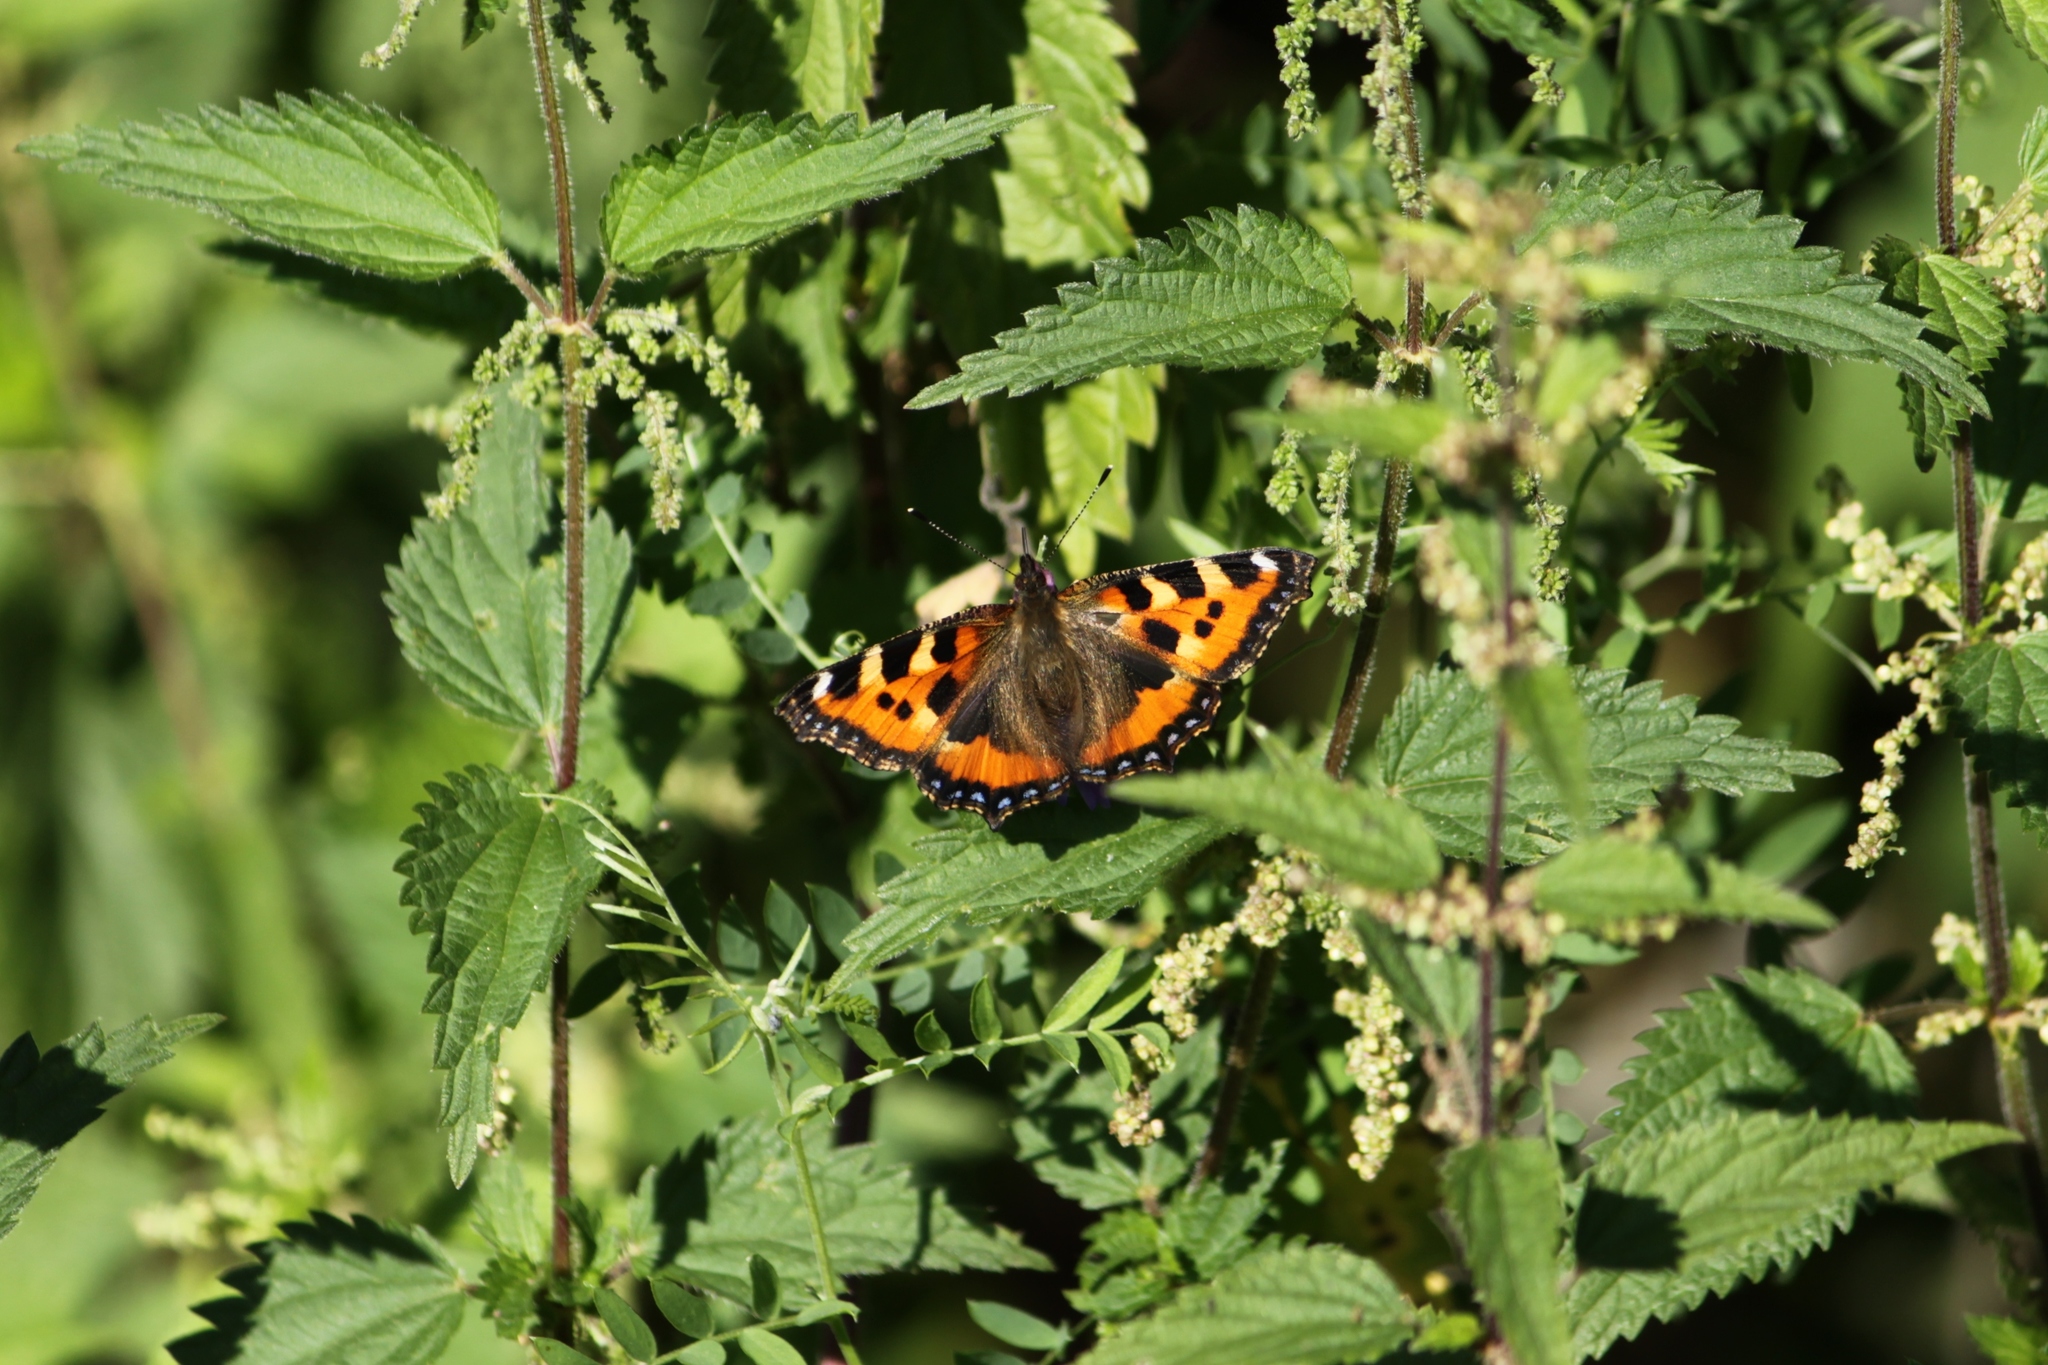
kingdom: Animalia
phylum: Arthropoda
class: Insecta
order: Lepidoptera
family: Nymphalidae
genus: Aglais
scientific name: Aglais urticae
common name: Small tortoiseshell
